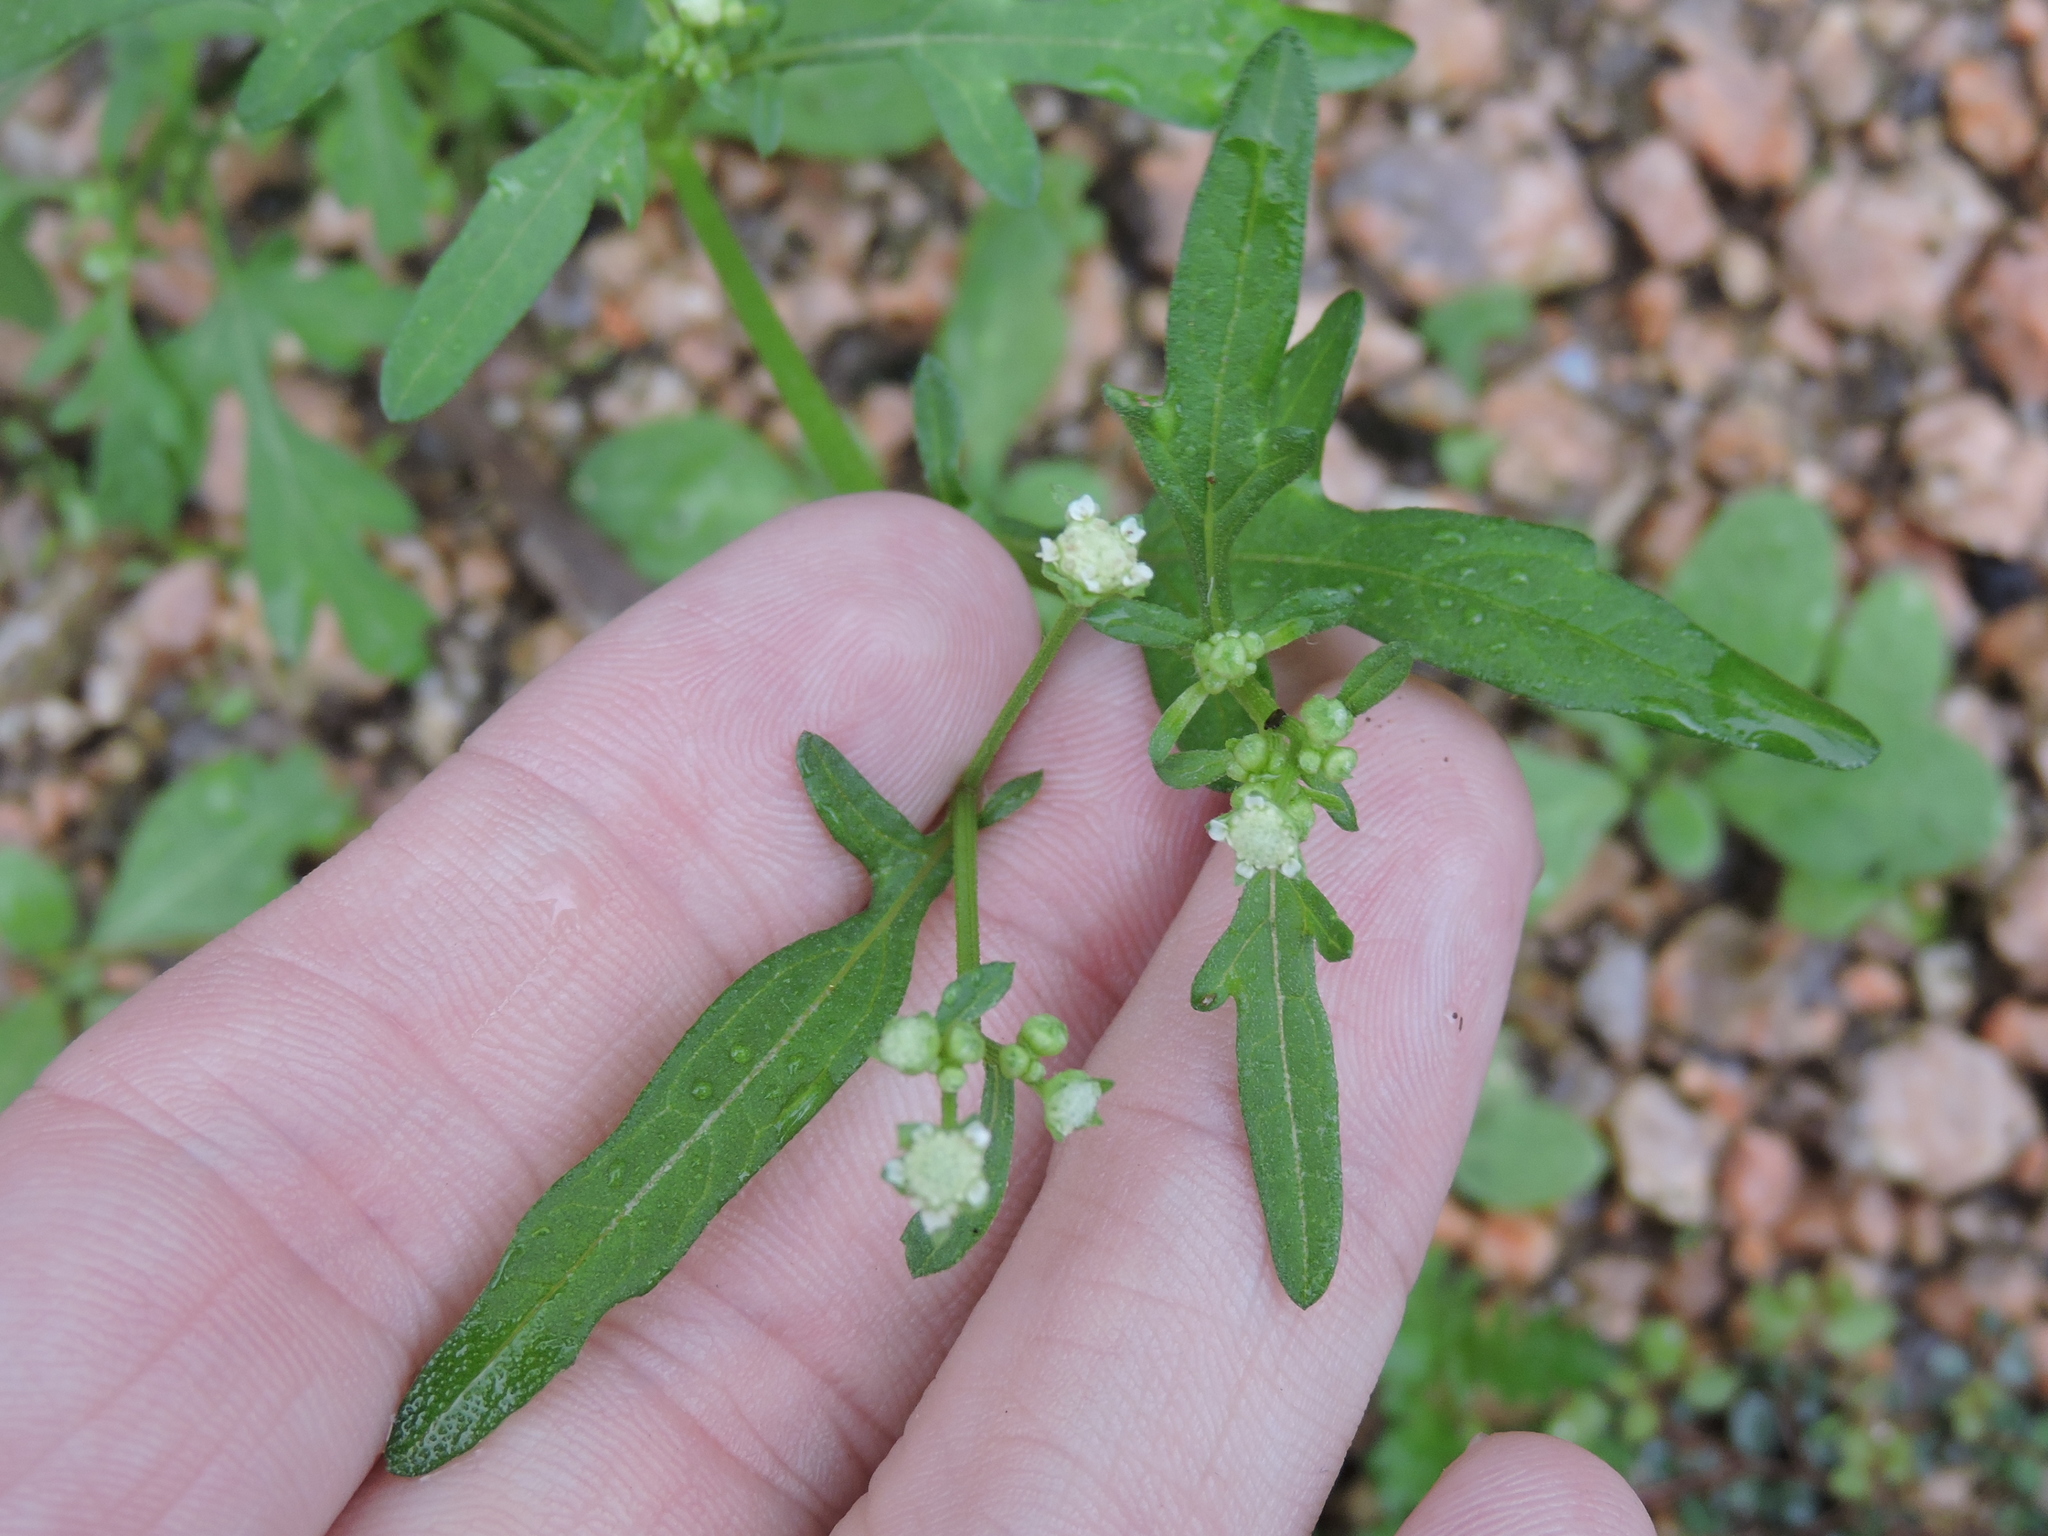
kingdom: Plantae
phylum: Tracheophyta
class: Magnoliopsida
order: Asterales
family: Asteraceae
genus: Parthenium
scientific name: Parthenium hysterophorus
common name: Santa maria feverfew
